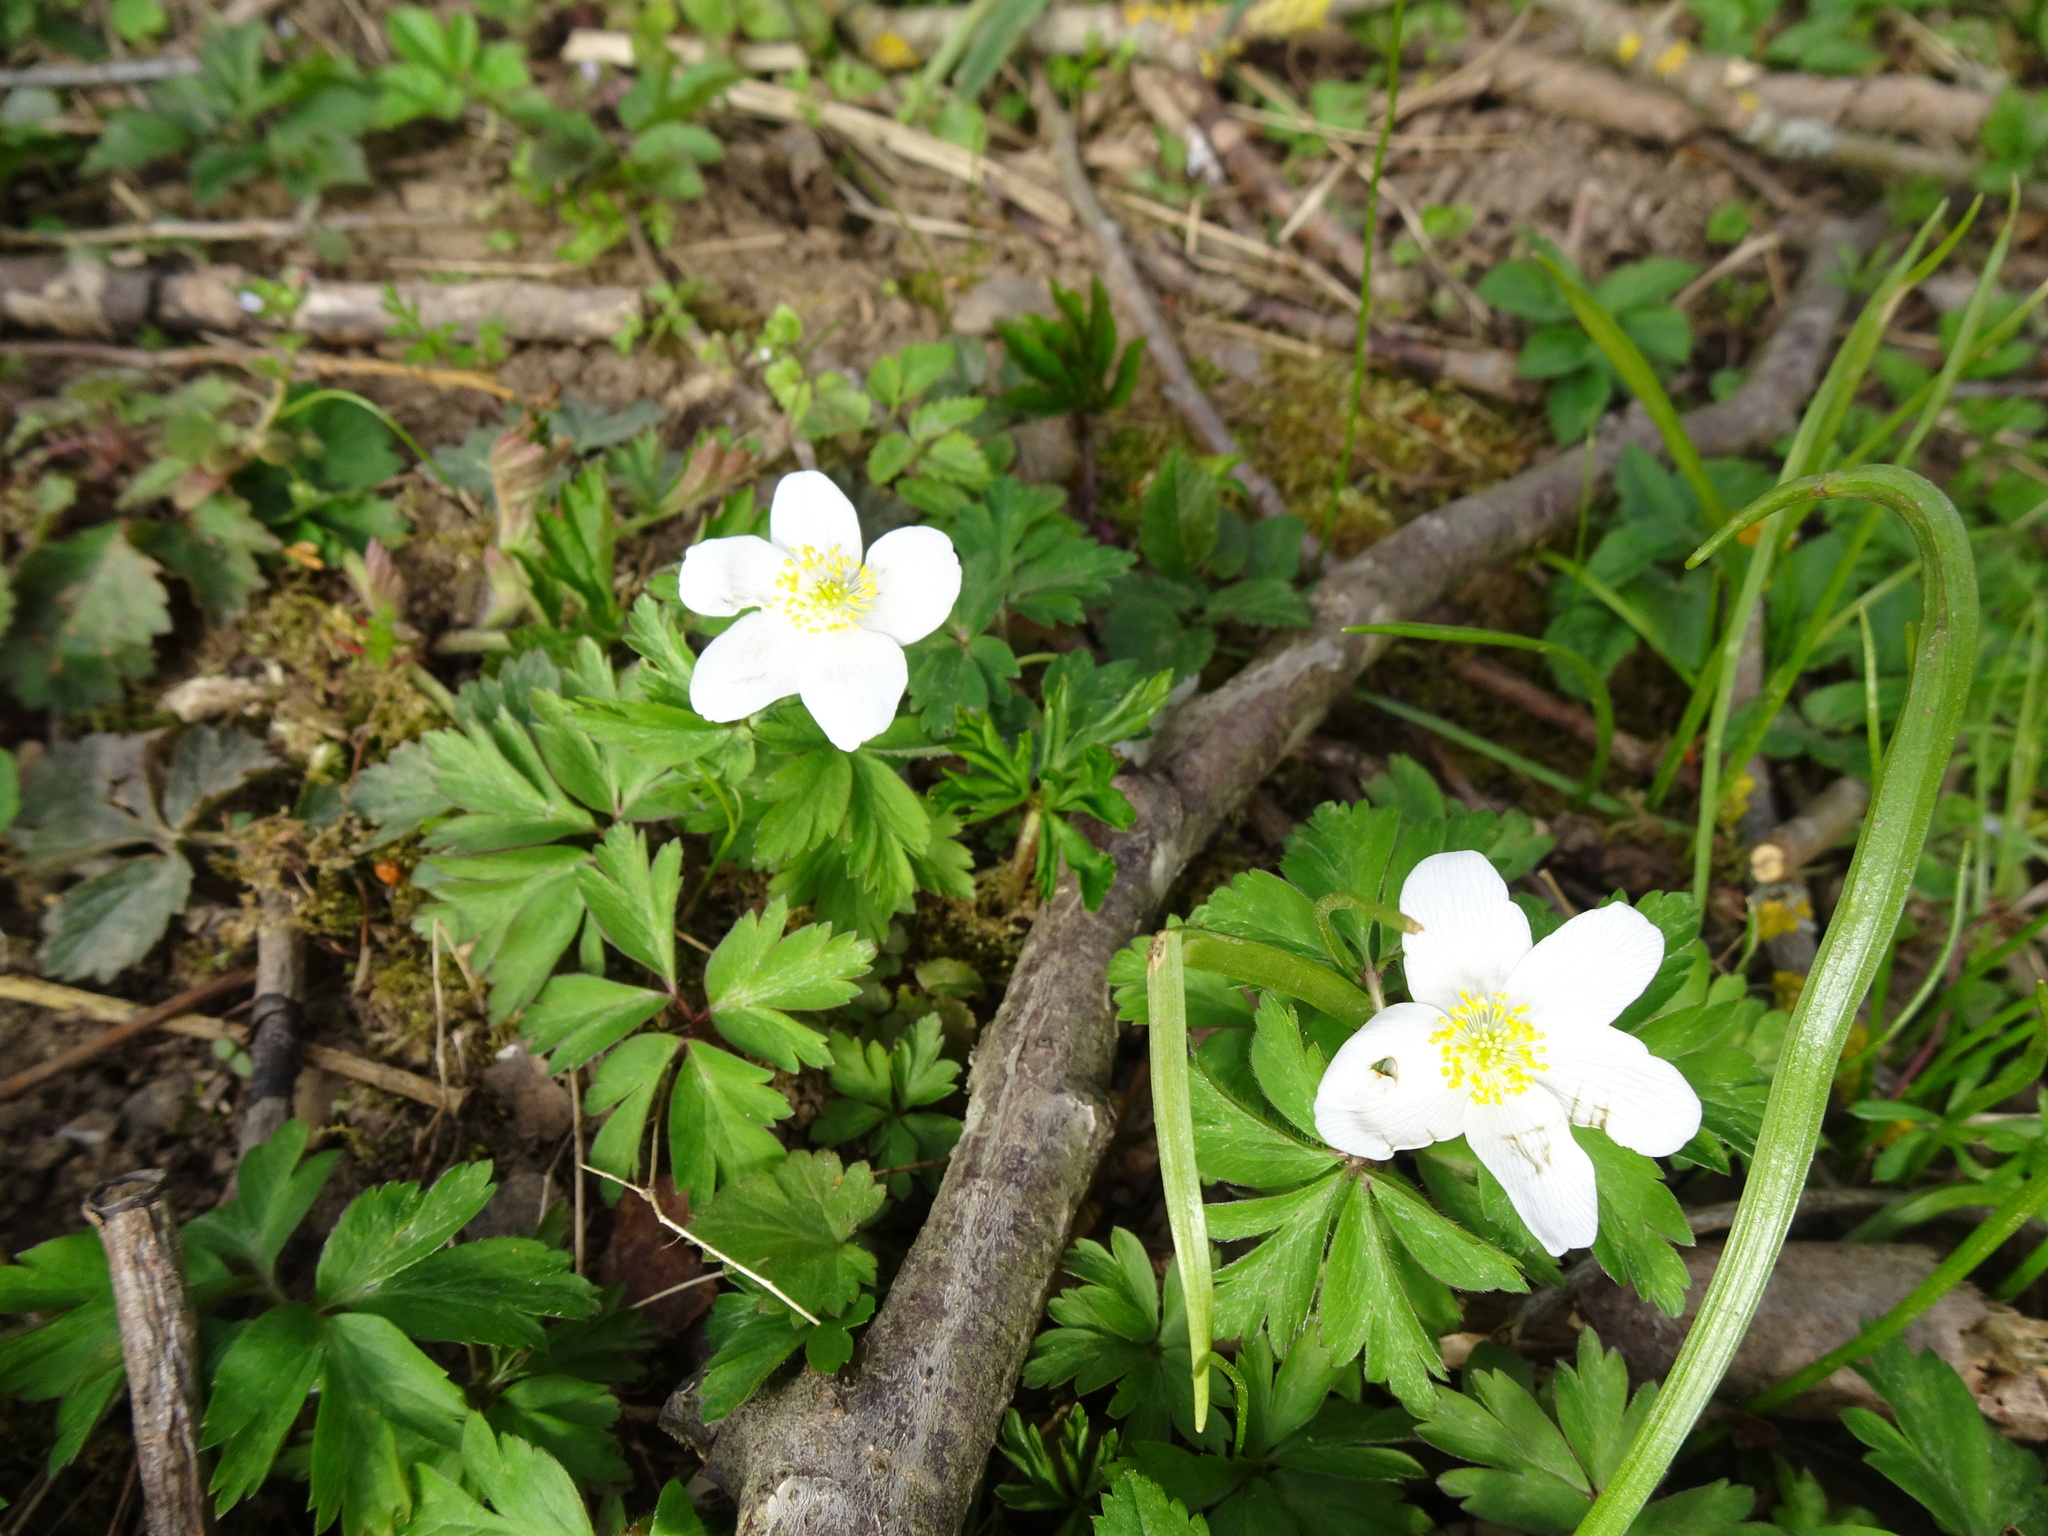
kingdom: Plantae
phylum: Tracheophyta
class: Magnoliopsida
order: Ranunculales
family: Ranunculaceae
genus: Anemone
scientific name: Anemone nemorosa
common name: Wood anemone
